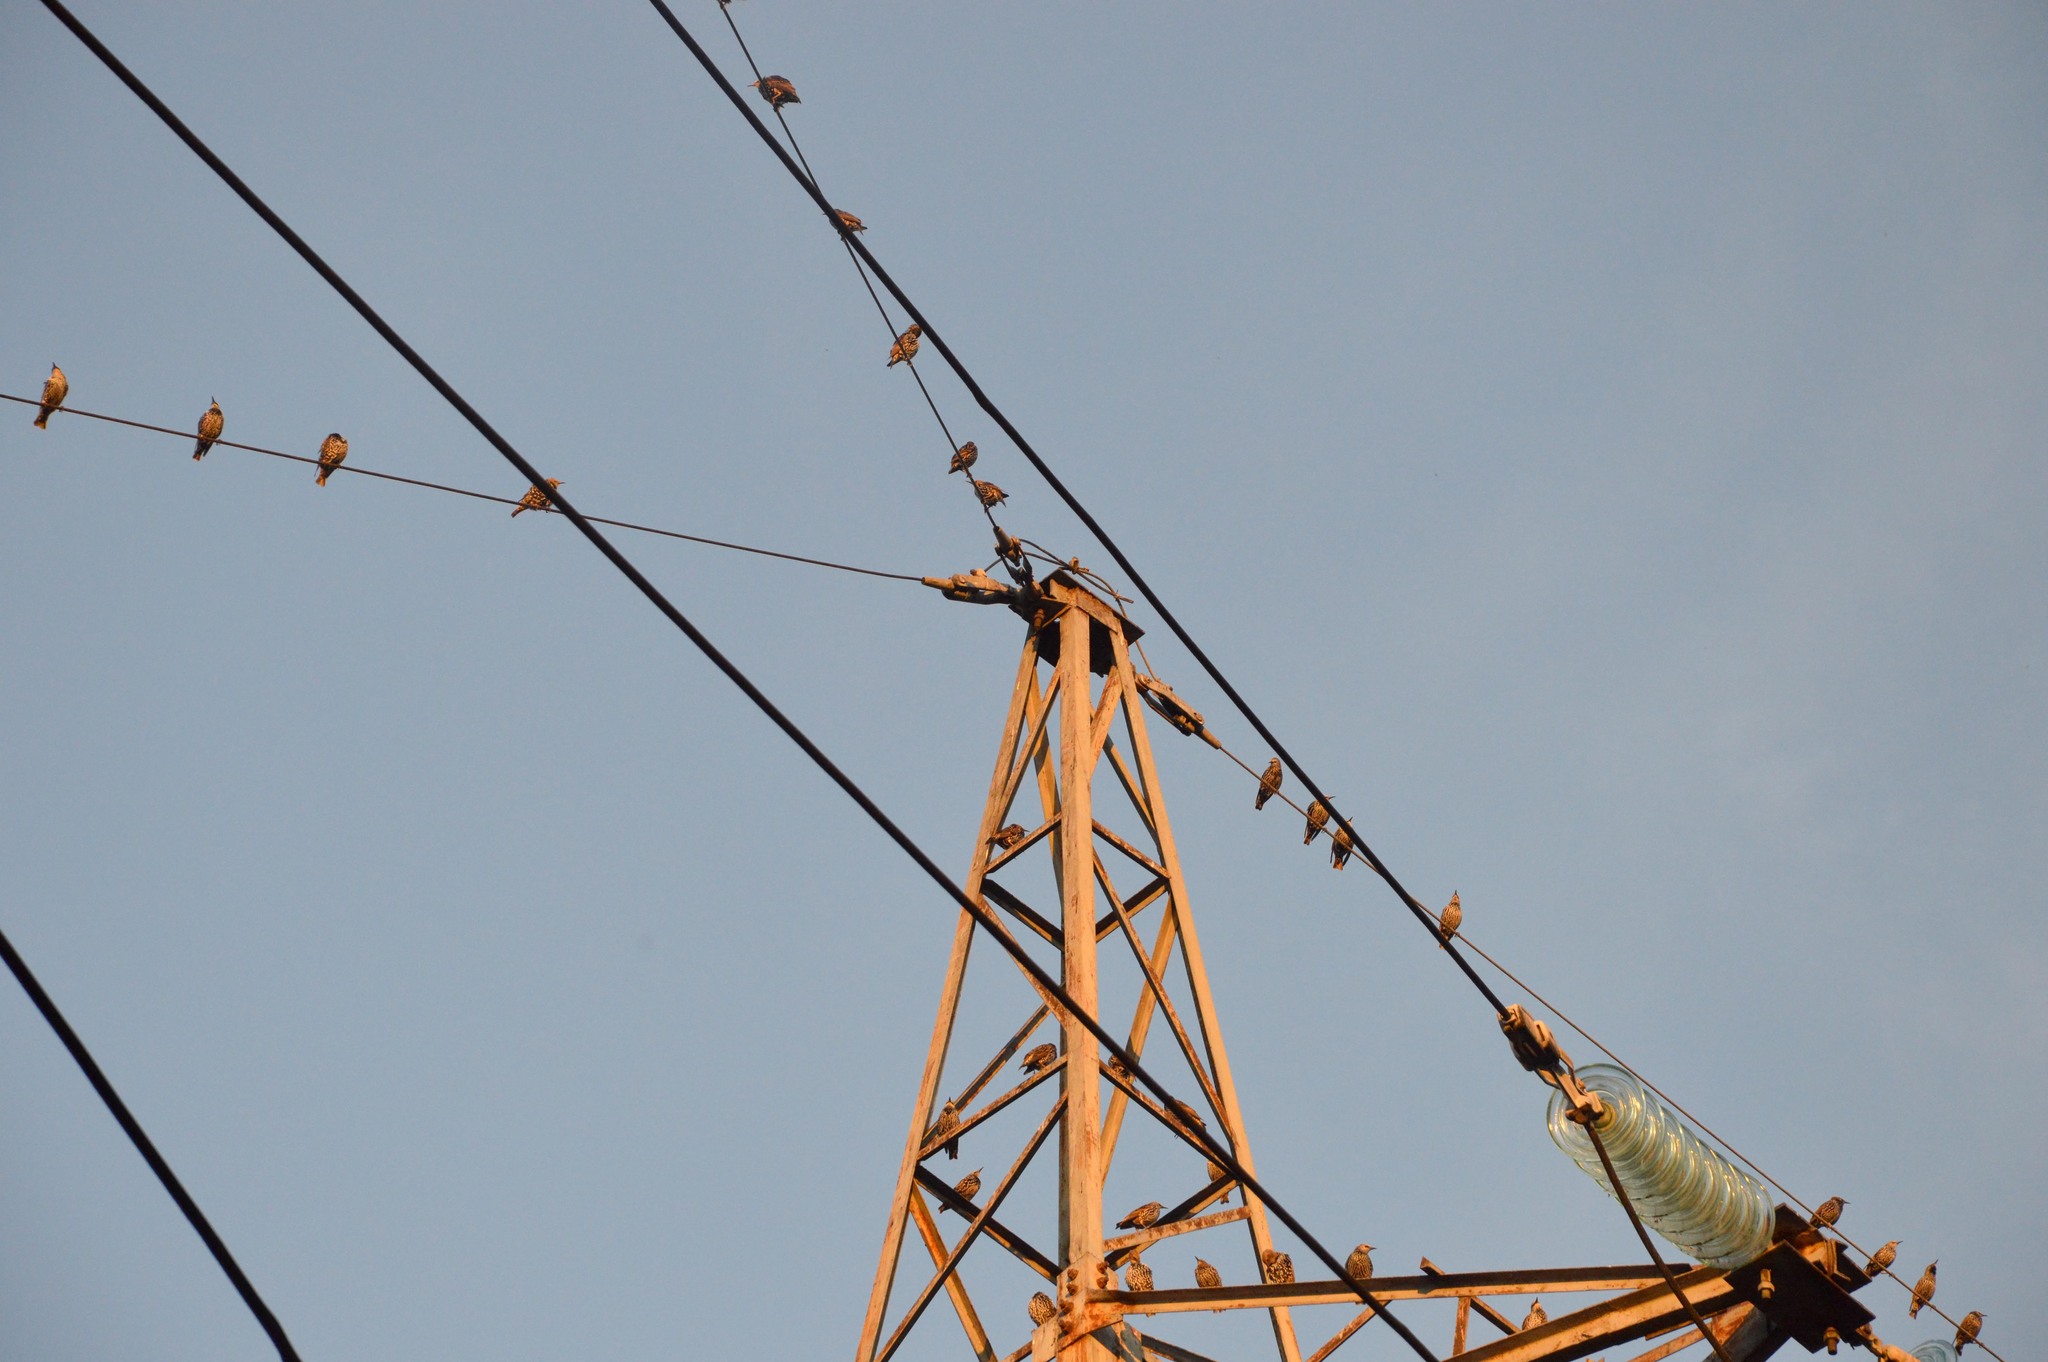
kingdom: Animalia
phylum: Chordata
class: Aves
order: Passeriformes
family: Sturnidae
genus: Sturnus
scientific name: Sturnus vulgaris
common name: Common starling
